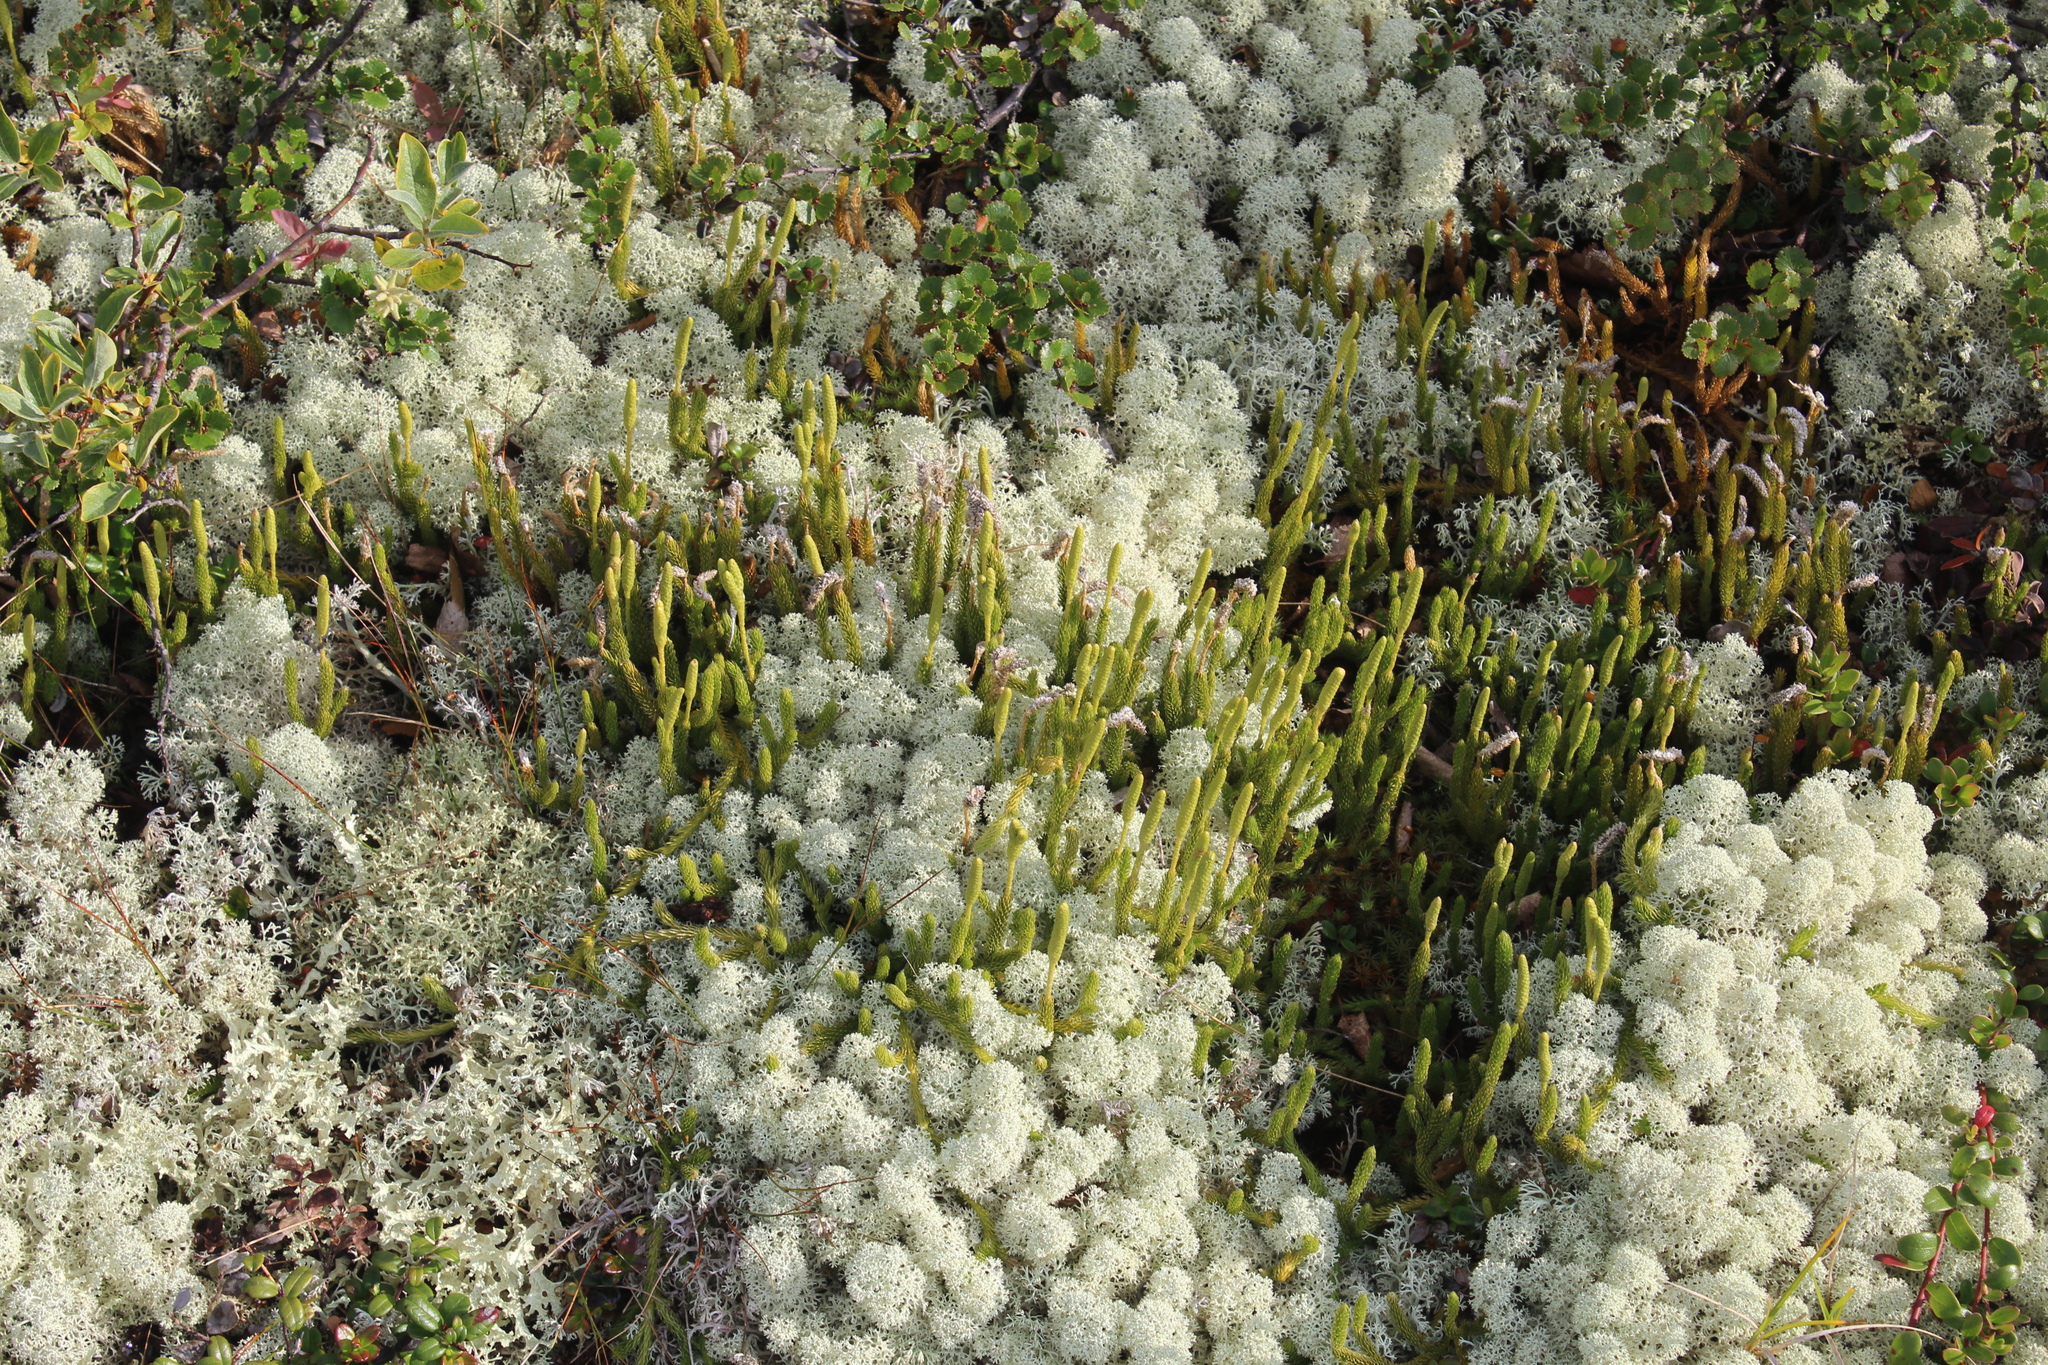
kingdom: Plantae
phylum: Tracheophyta
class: Lycopodiopsida
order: Lycopodiales
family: Lycopodiaceae
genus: Lycopodium
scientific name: Lycopodium lagopus
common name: One-cone clubmoss
